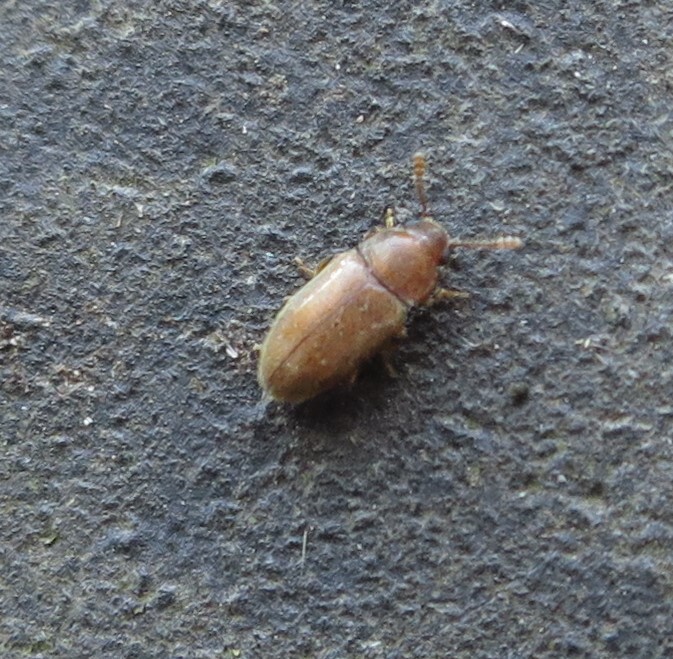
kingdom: Animalia
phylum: Arthropoda
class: Insecta
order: Coleoptera
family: Mycetophagidae
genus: Typhaea
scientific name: Typhaea stercorea
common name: Hairy fungus beetle
